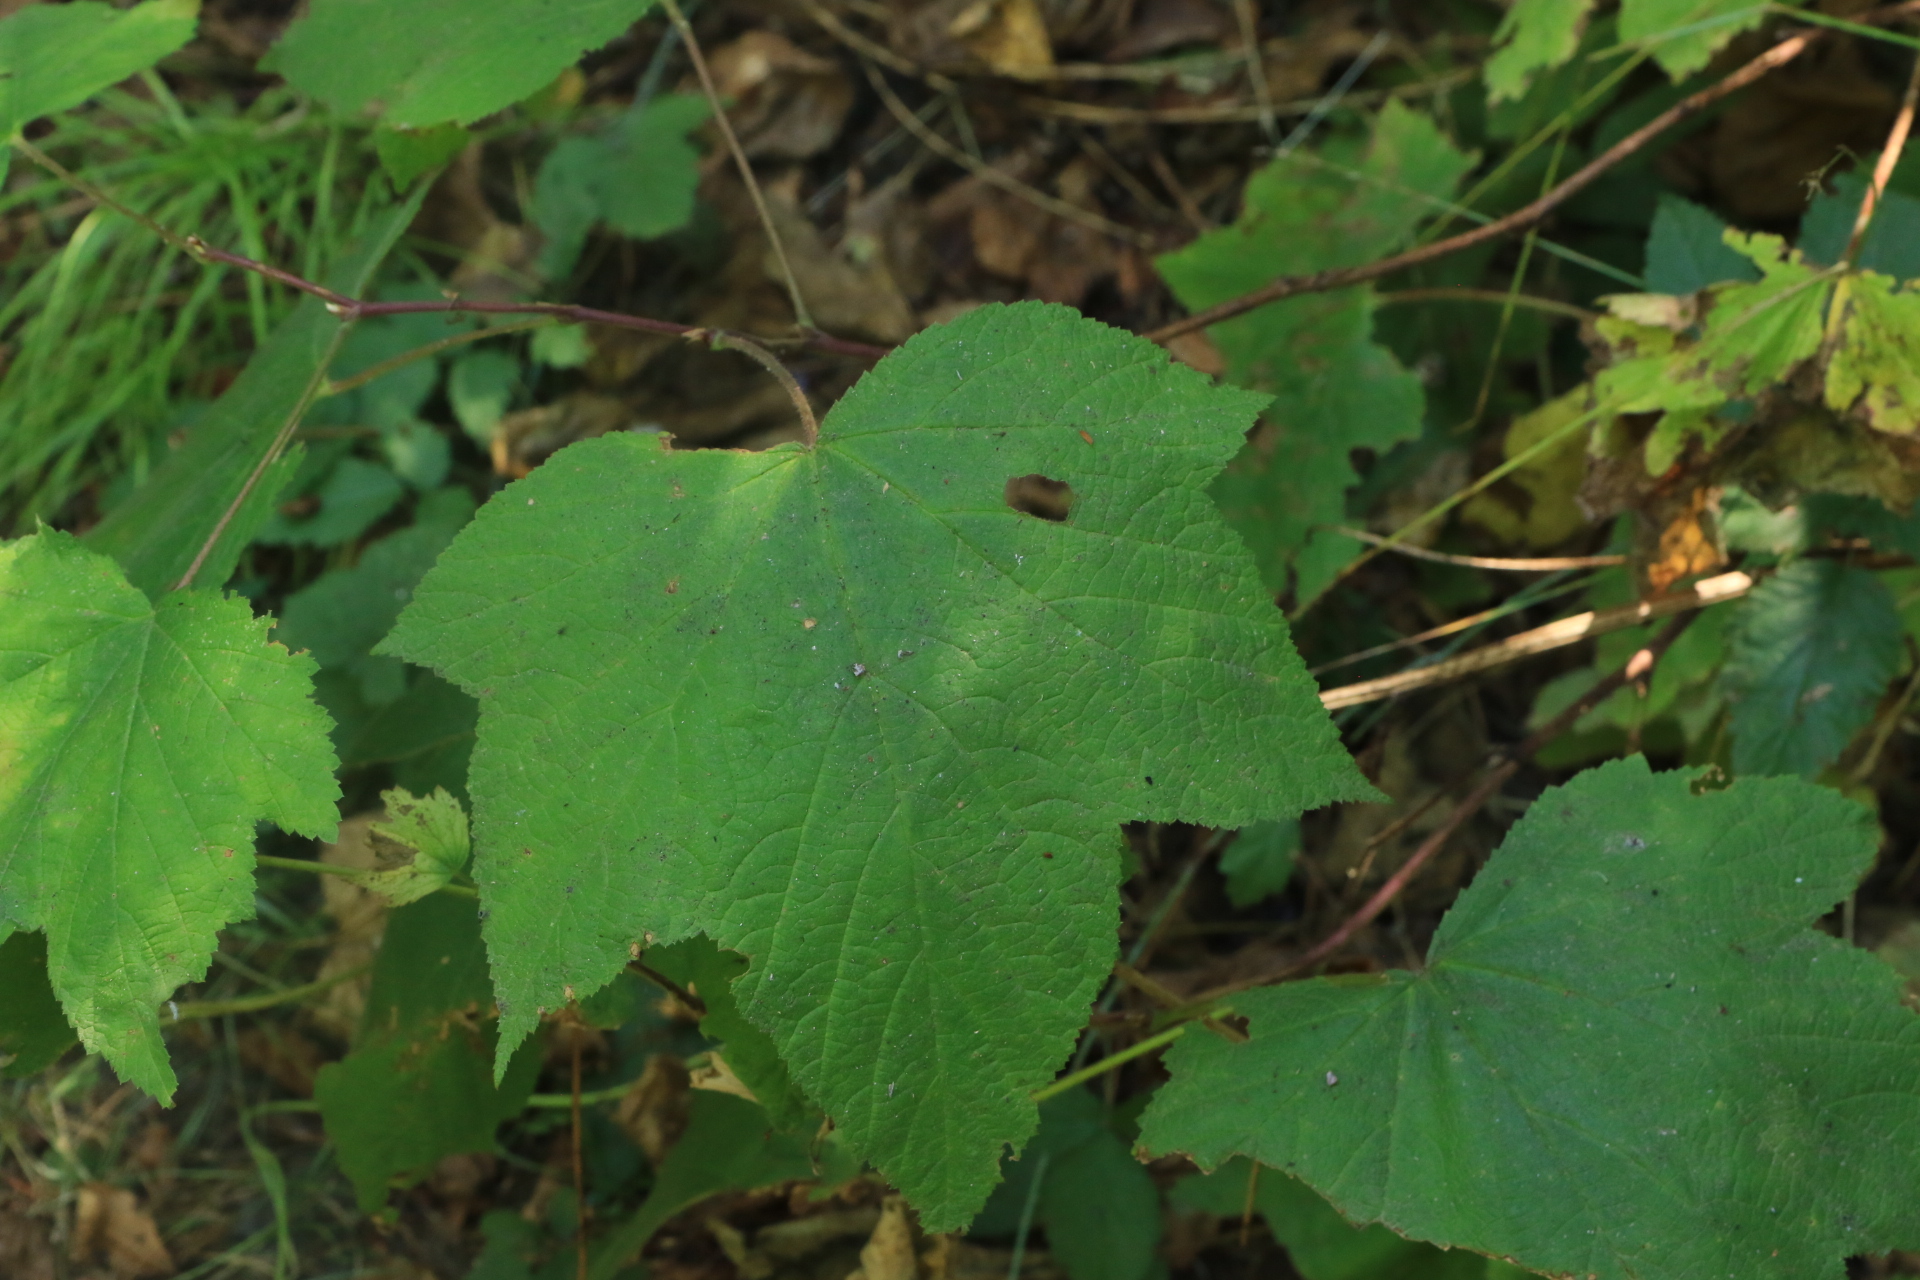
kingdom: Plantae
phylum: Tracheophyta
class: Magnoliopsida
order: Rosales
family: Rosaceae
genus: Rubus
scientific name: Rubus parviflorus
